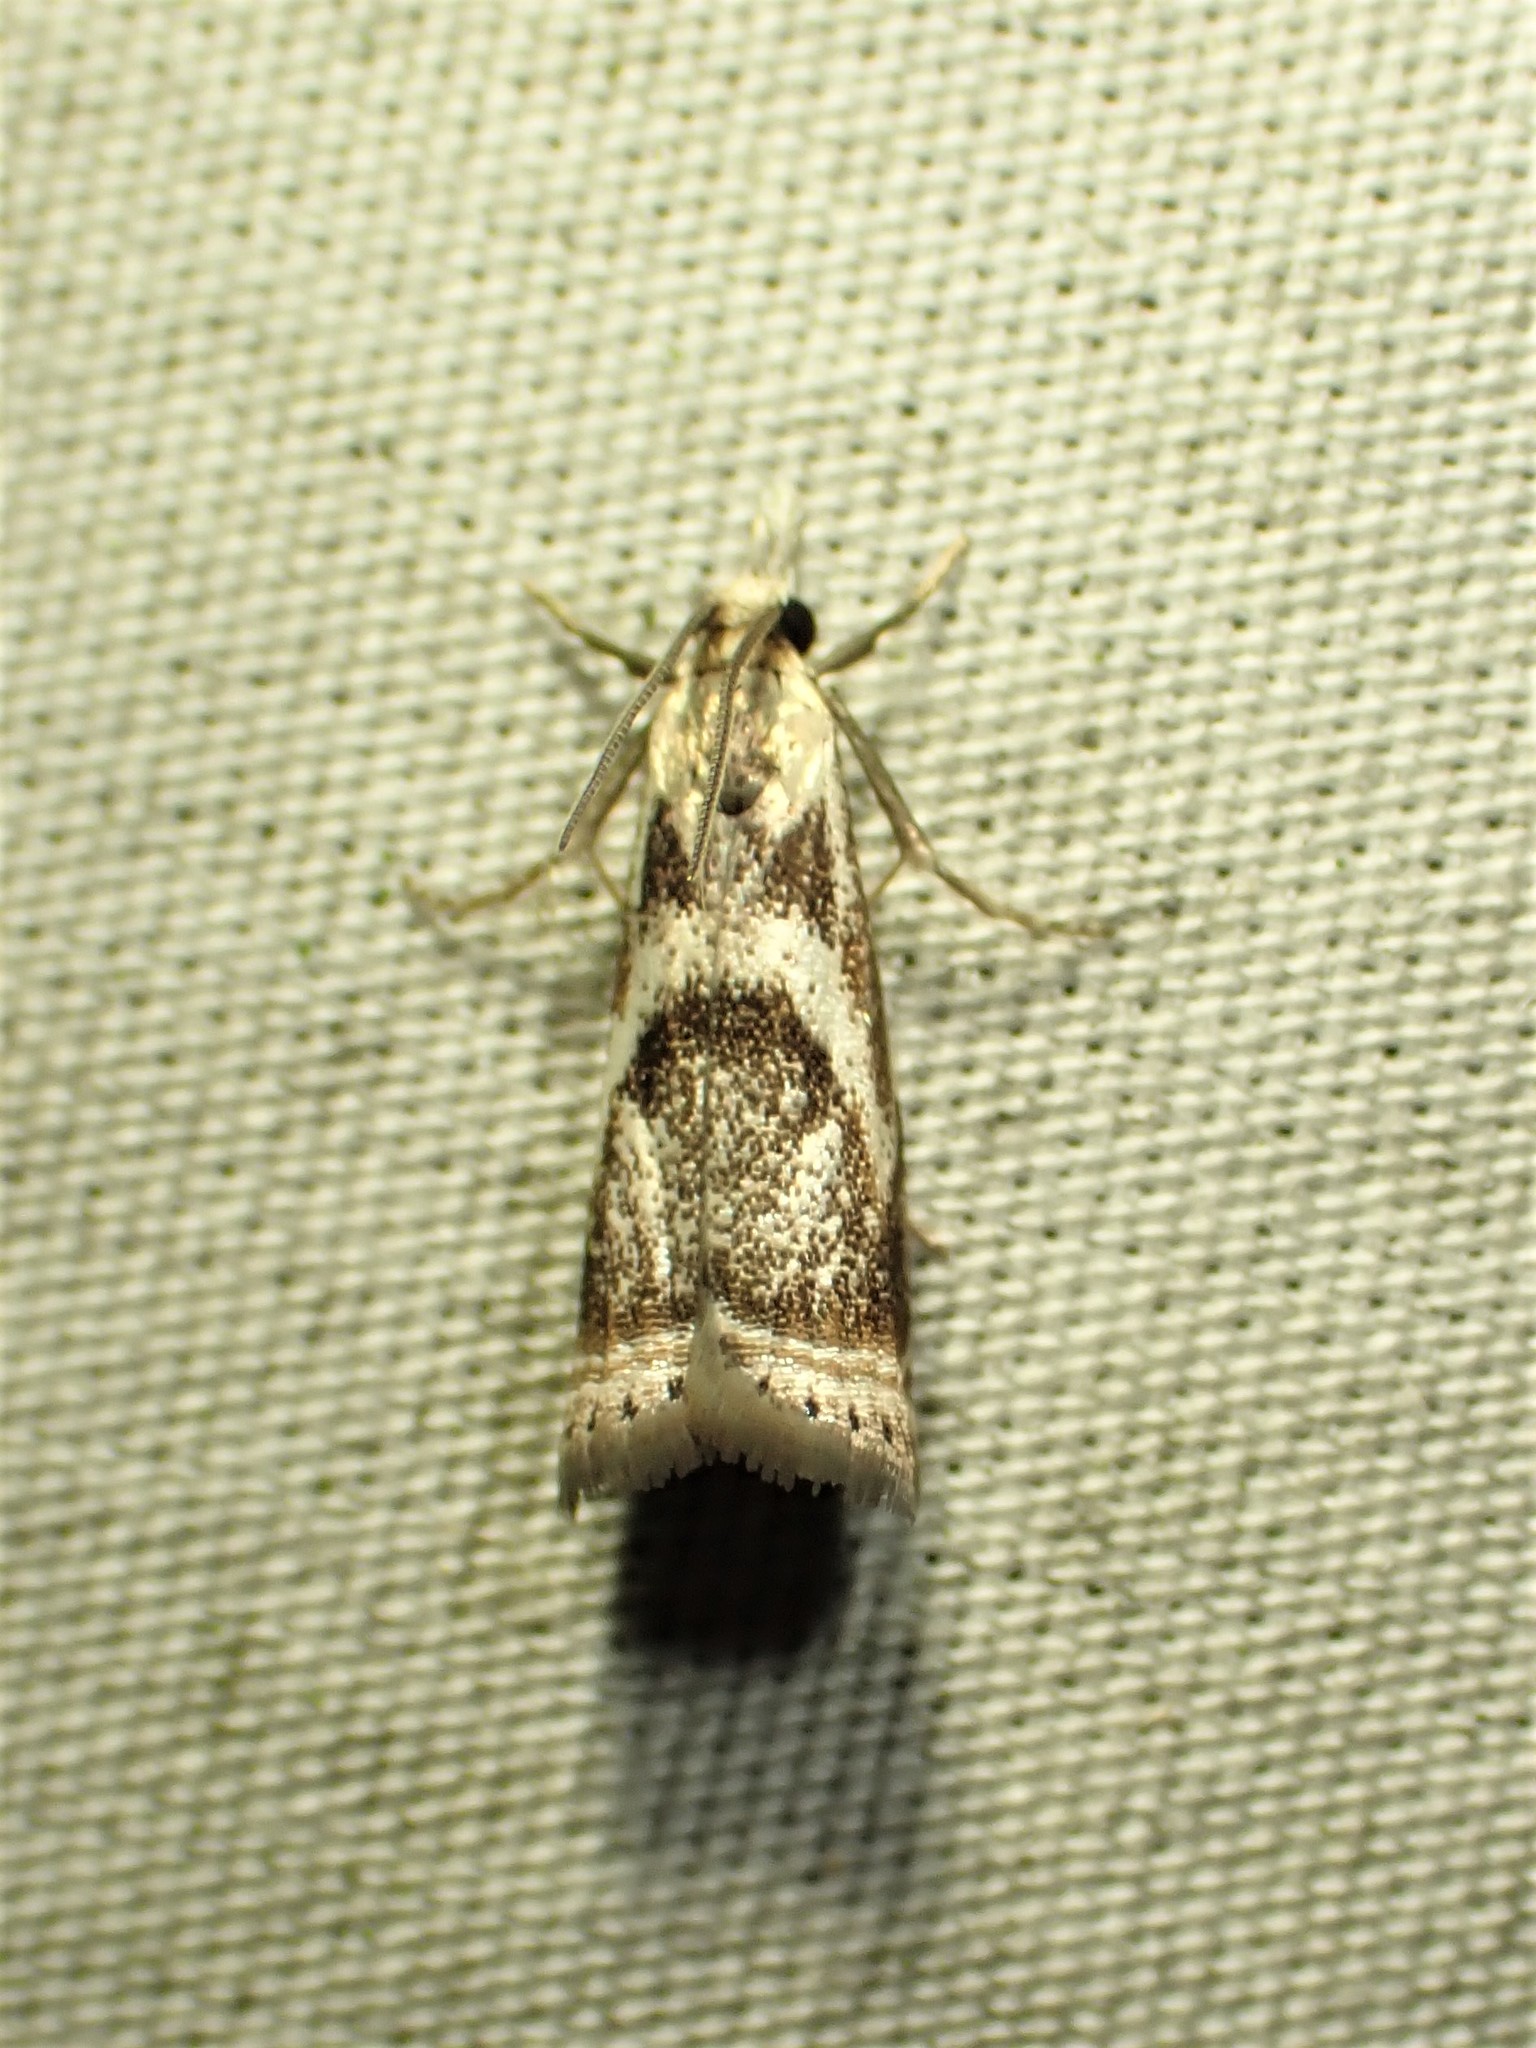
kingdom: Animalia
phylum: Arthropoda
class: Insecta
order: Lepidoptera
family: Crambidae
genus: Microcrambus
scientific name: Microcrambus elegans
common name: Elegant grass-veneer
